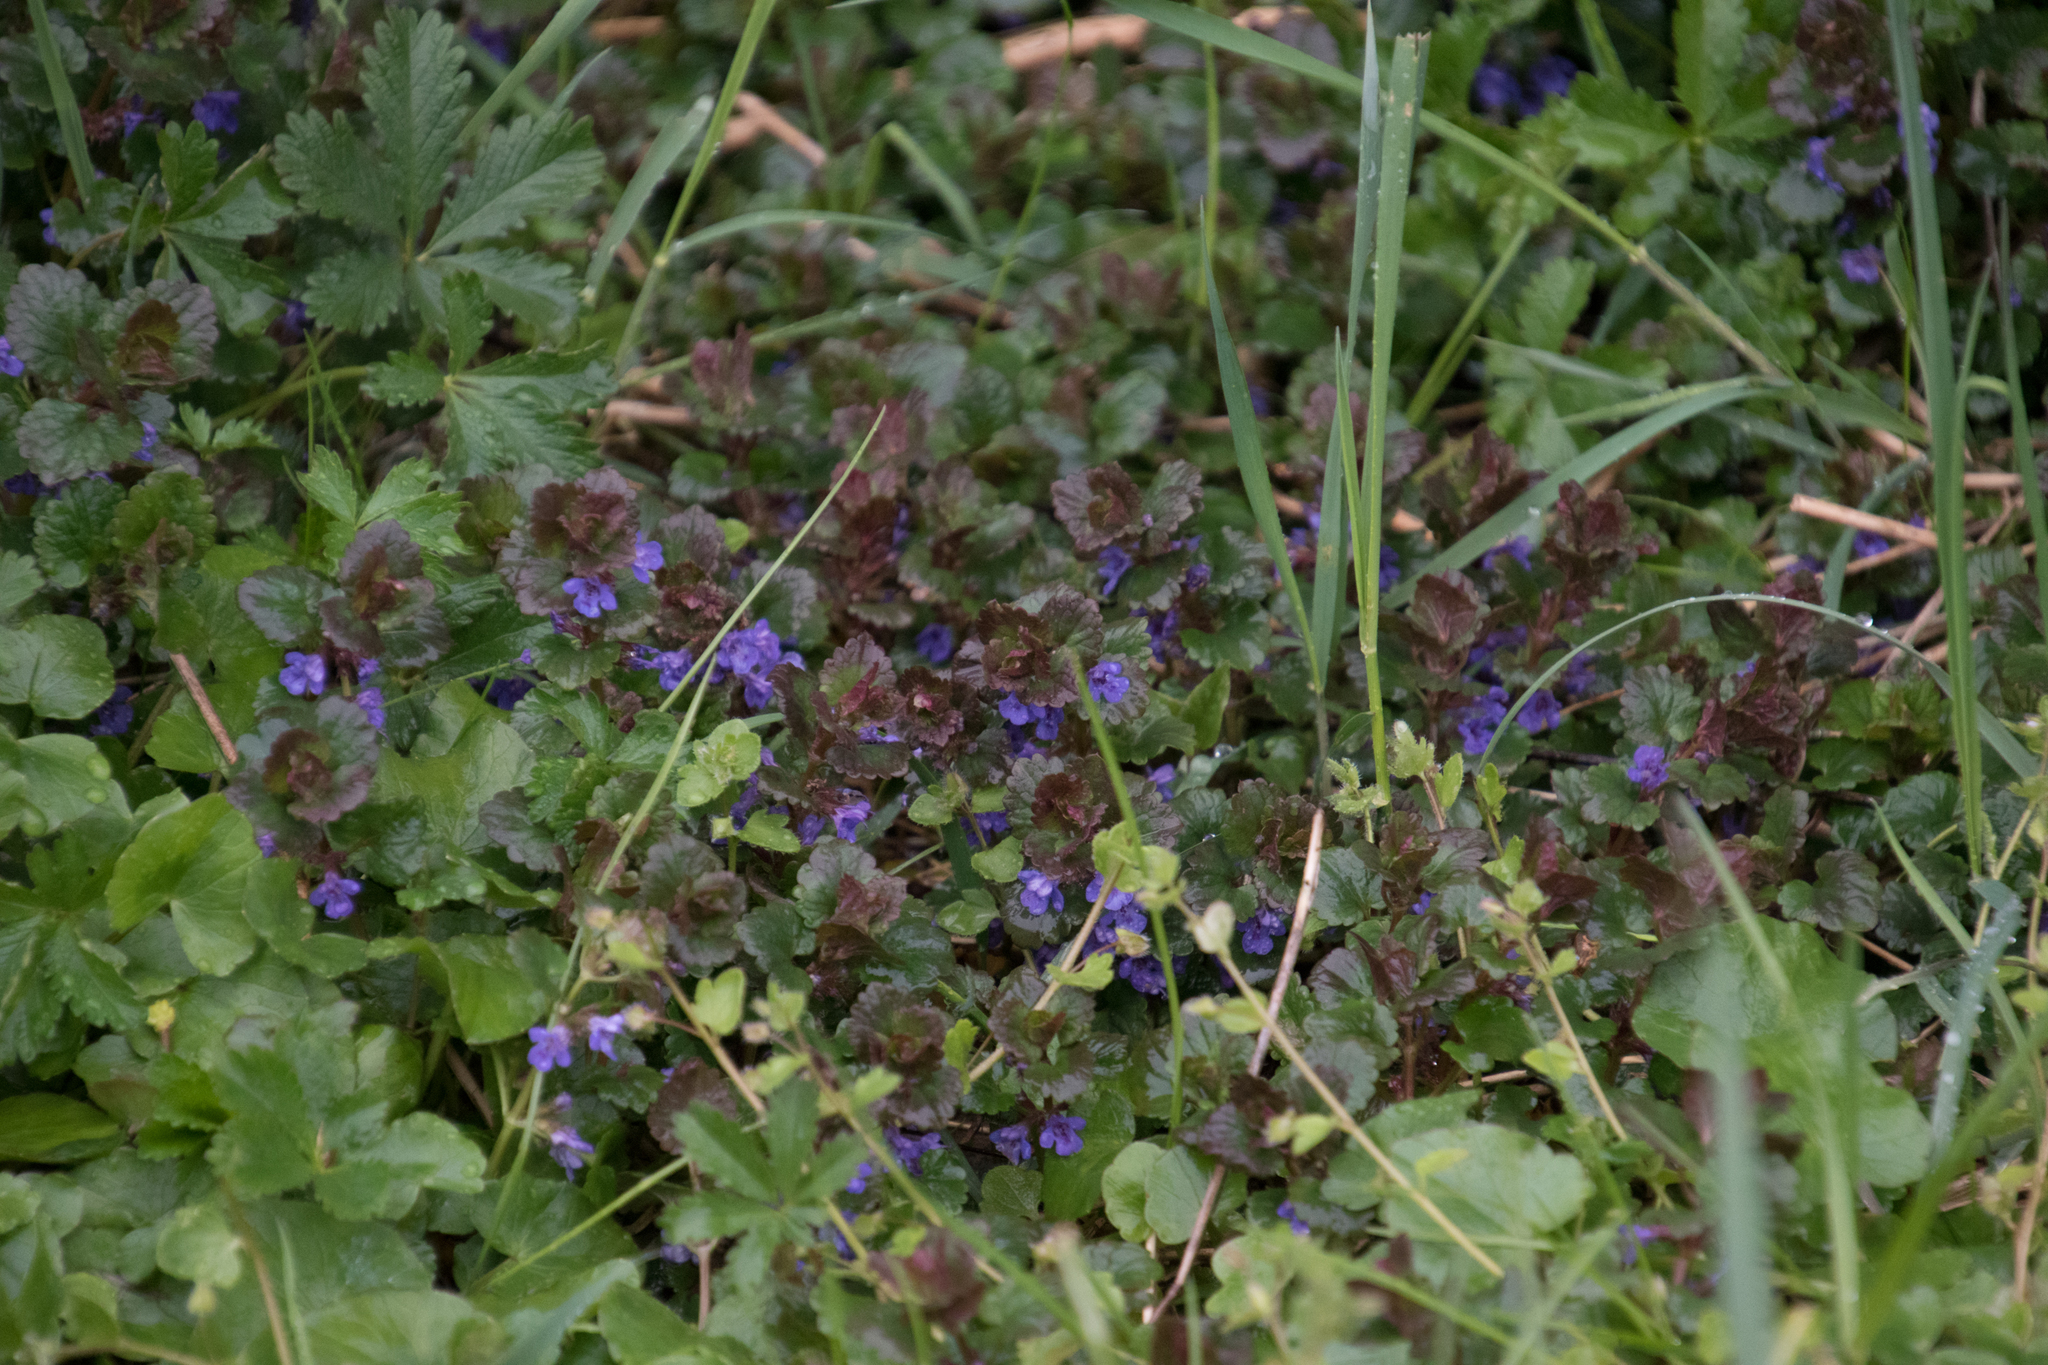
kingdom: Plantae
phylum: Tracheophyta
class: Magnoliopsida
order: Lamiales
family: Lamiaceae
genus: Glechoma
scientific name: Glechoma hederacea
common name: Ground ivy
